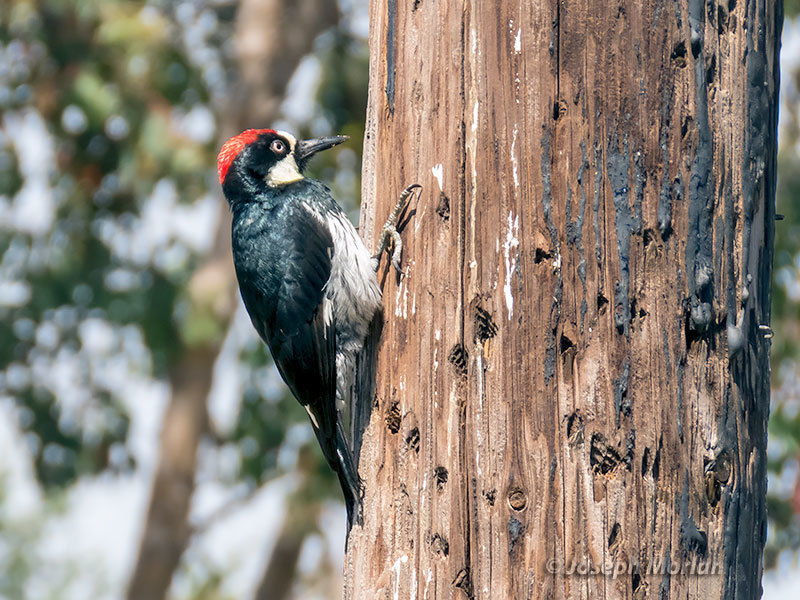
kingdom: Animalia
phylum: Chordata
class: Aves
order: Piciformes
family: Picidae
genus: Melanerpes
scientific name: Melanerpes formicivorus
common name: Acorn woodpecker
